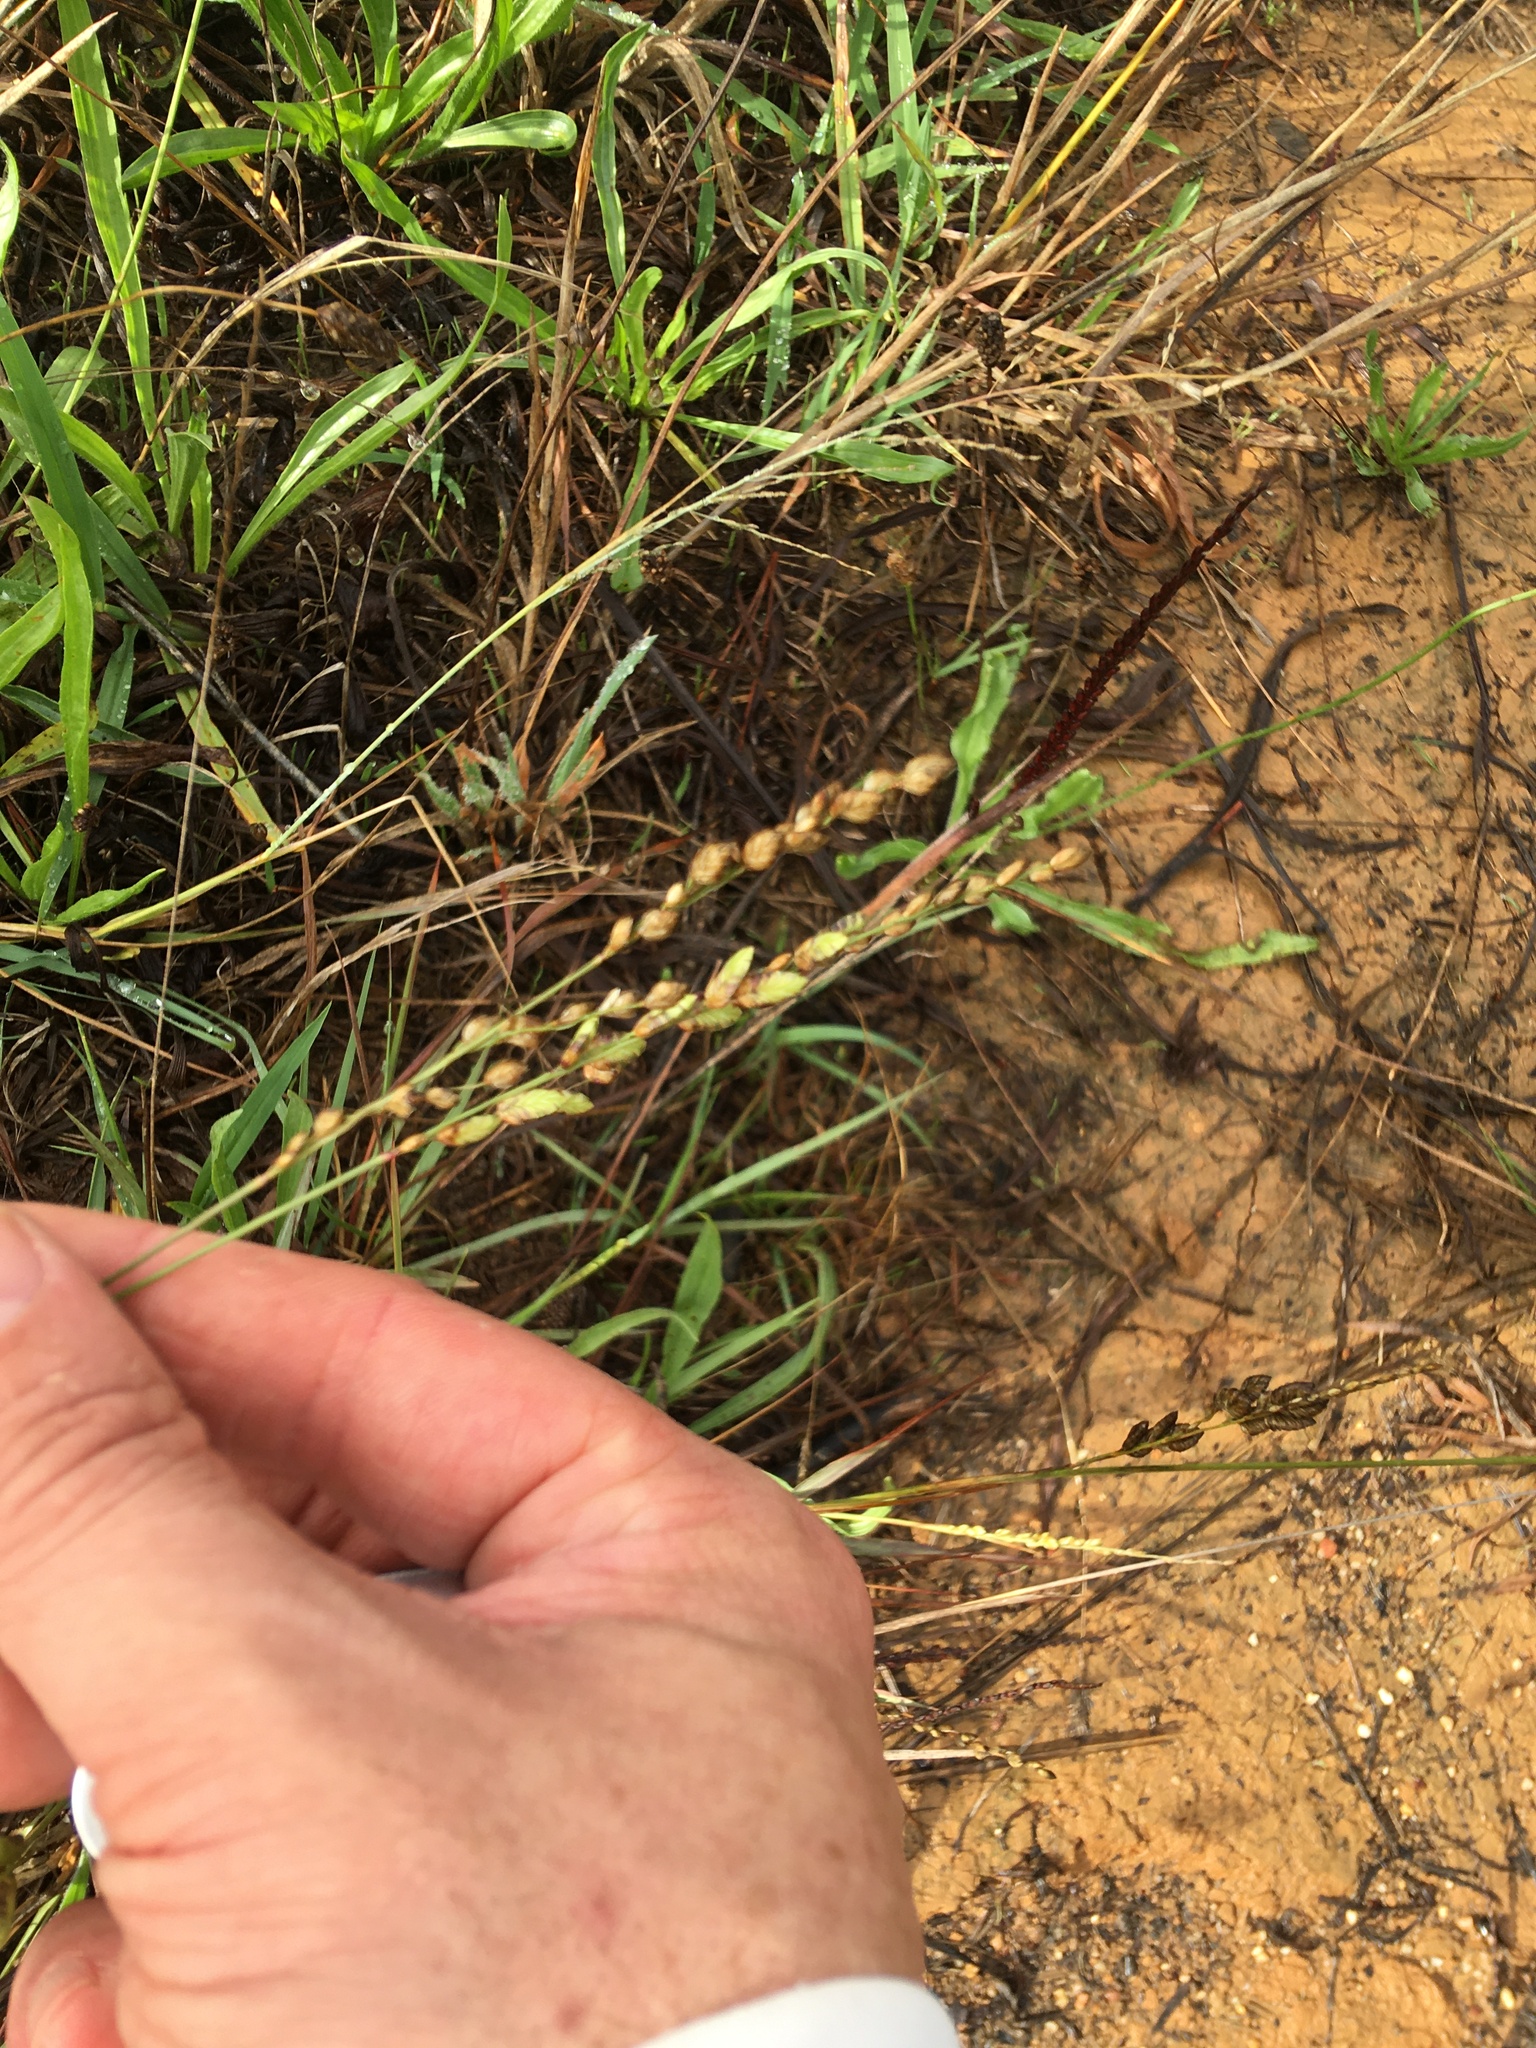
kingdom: Plantae
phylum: Tracheophyta
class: Liliopsida
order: Poales
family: Poaceae
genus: Eragrostis
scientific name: Eragrostis capensis
